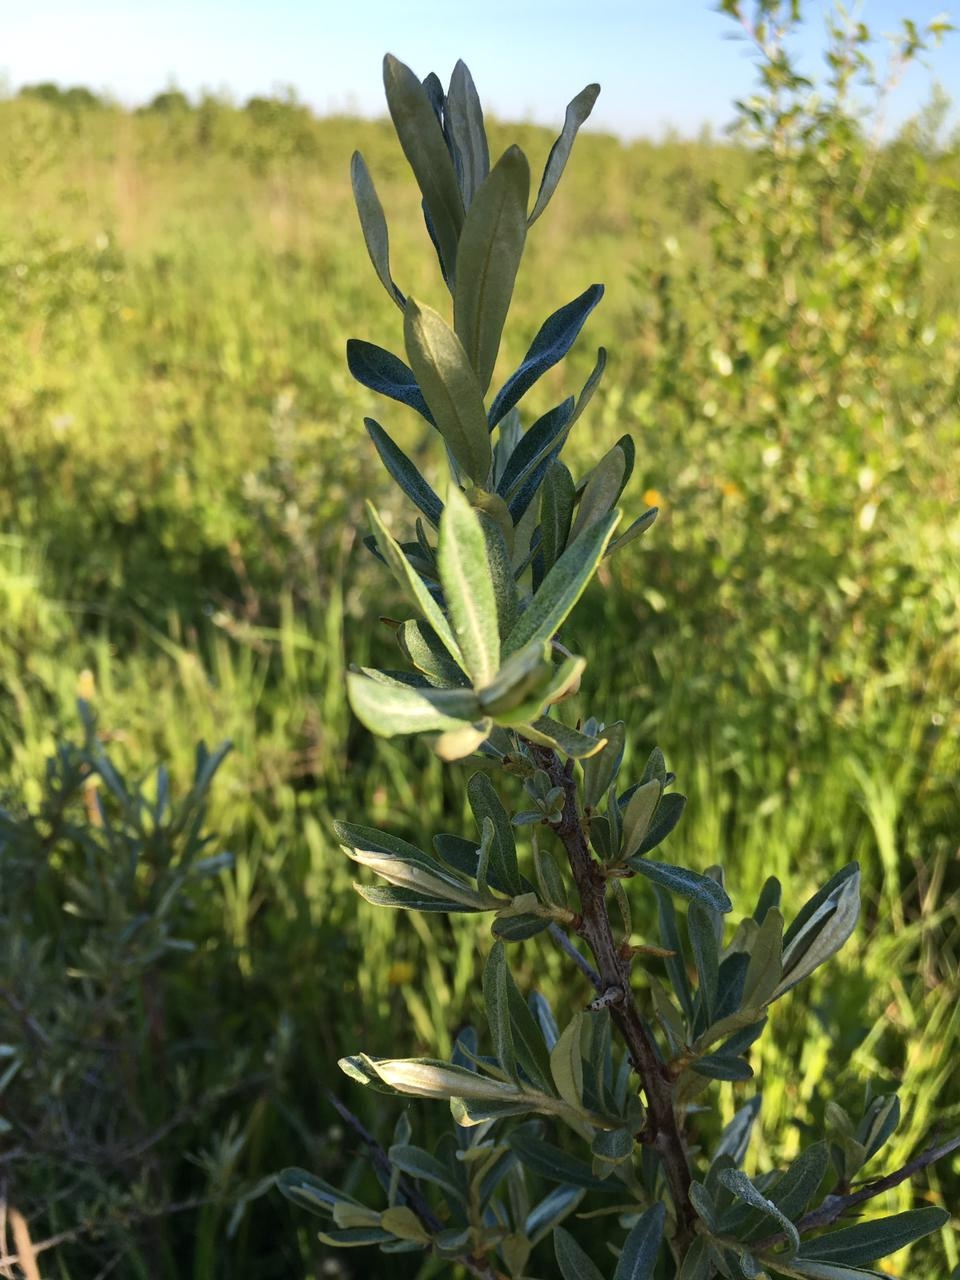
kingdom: Plantae
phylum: Tracheophyta
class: Magnoliopsida
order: Rosales
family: Elaeagnaceae
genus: Hippophae
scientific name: Hippophae rhamnoides
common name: Sea-buckthorn
